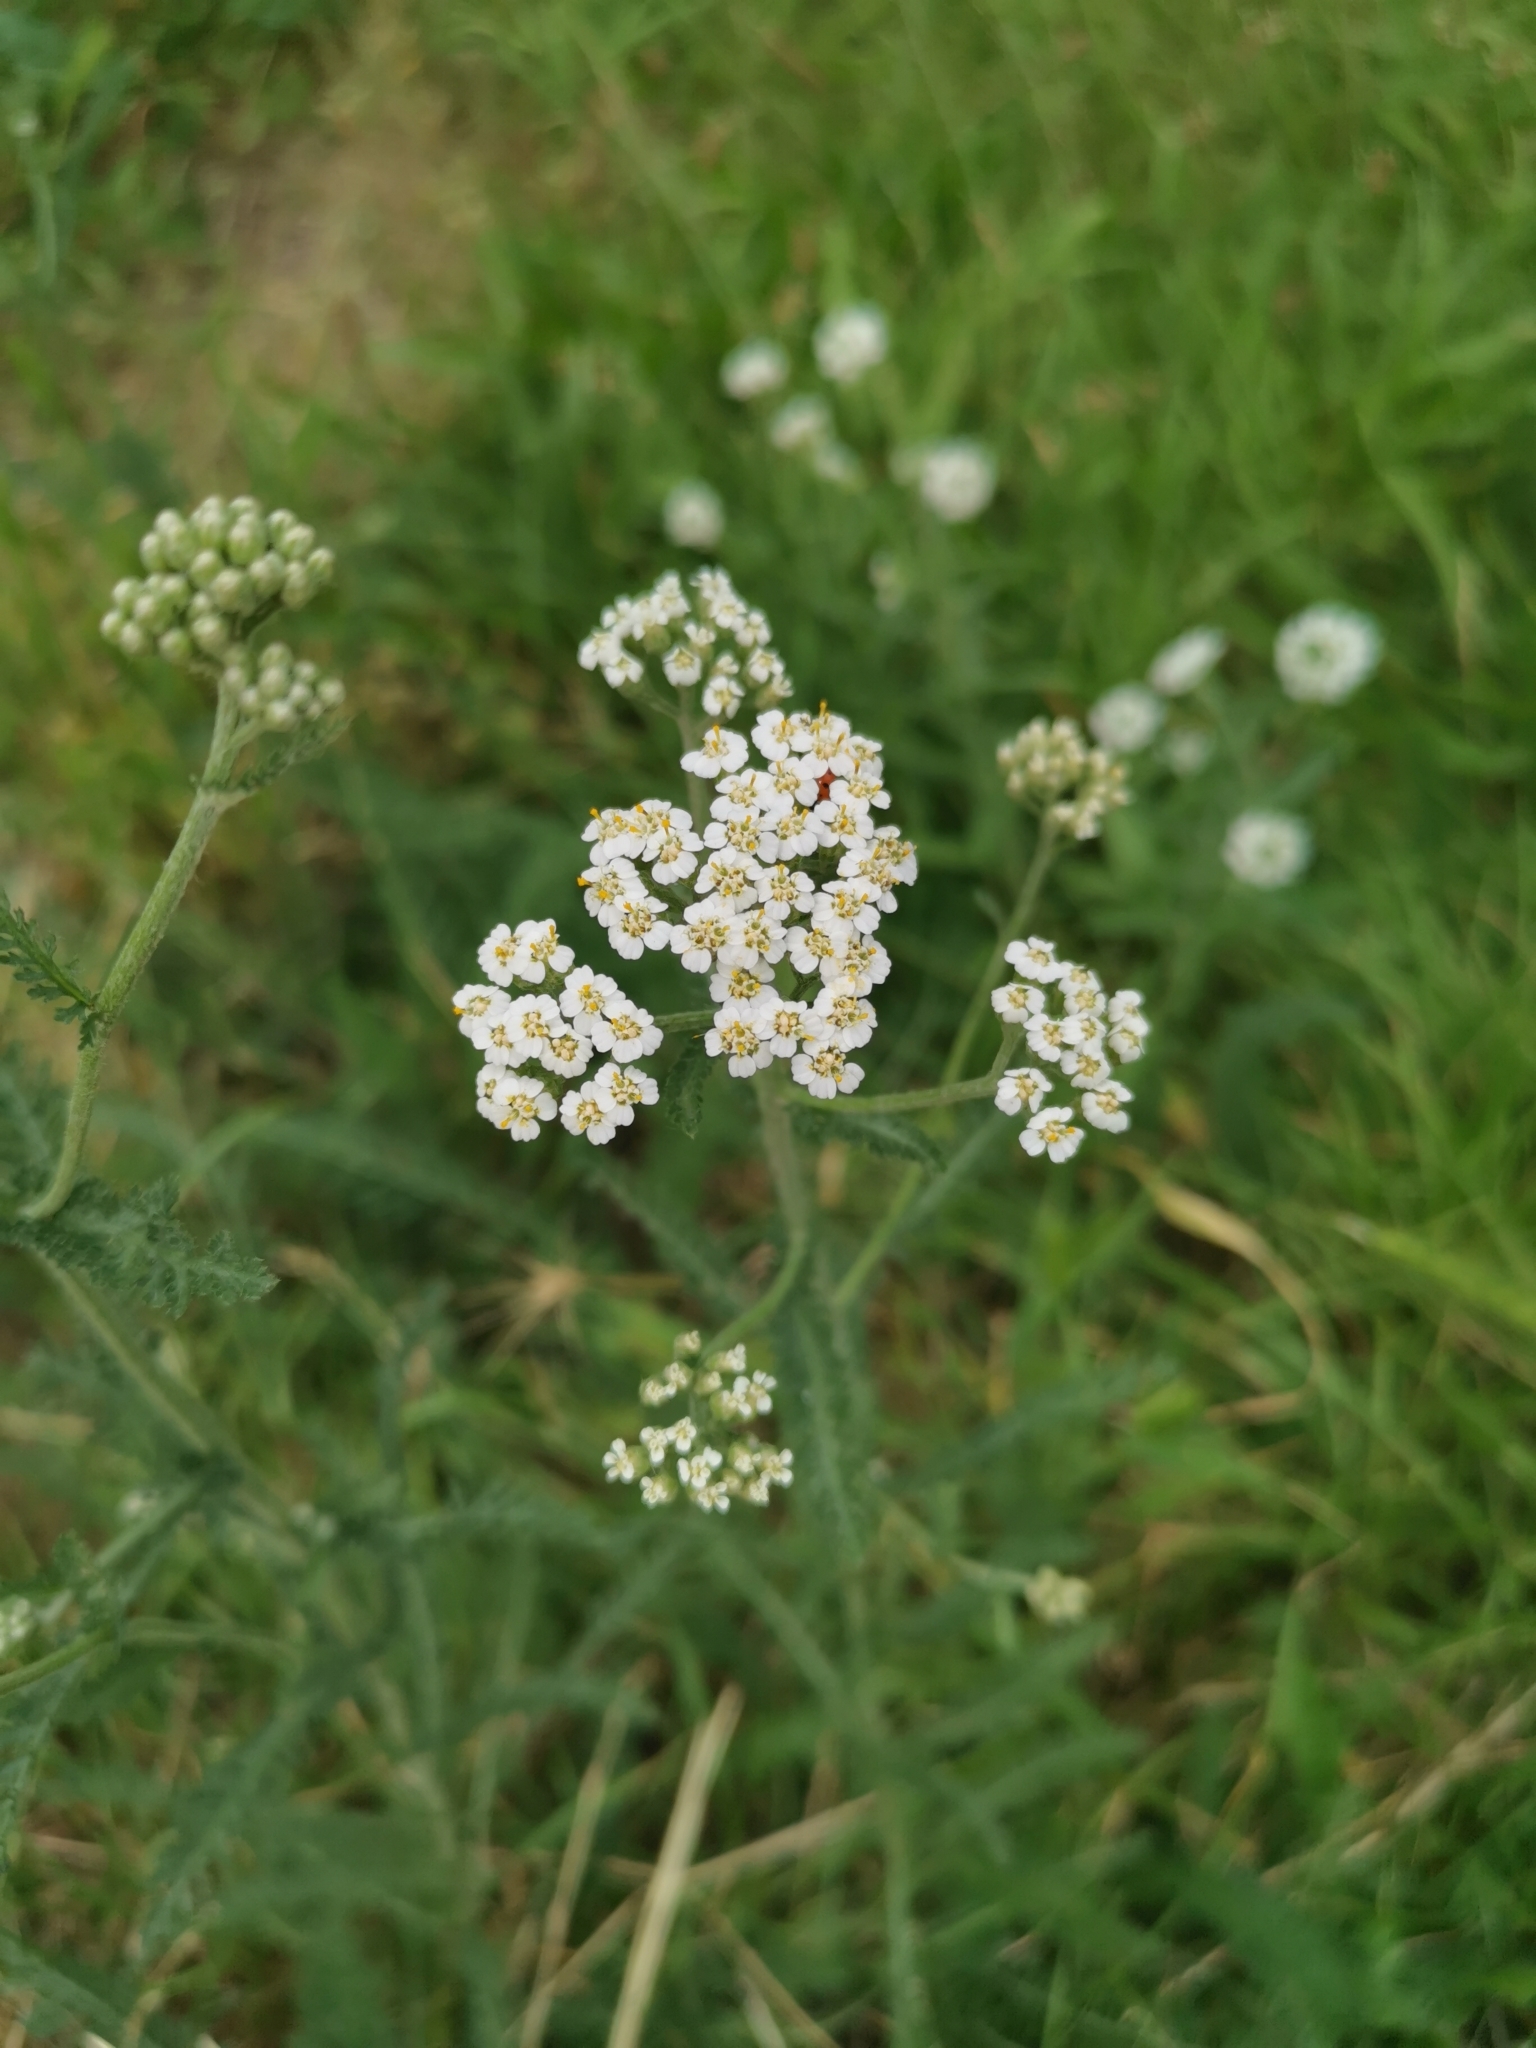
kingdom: Plantae
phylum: Tracheophyta
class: Magnoliopsida
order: Asterales
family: Asteraceae
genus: Achillea
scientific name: Achillea millefolium
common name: Yarrow
